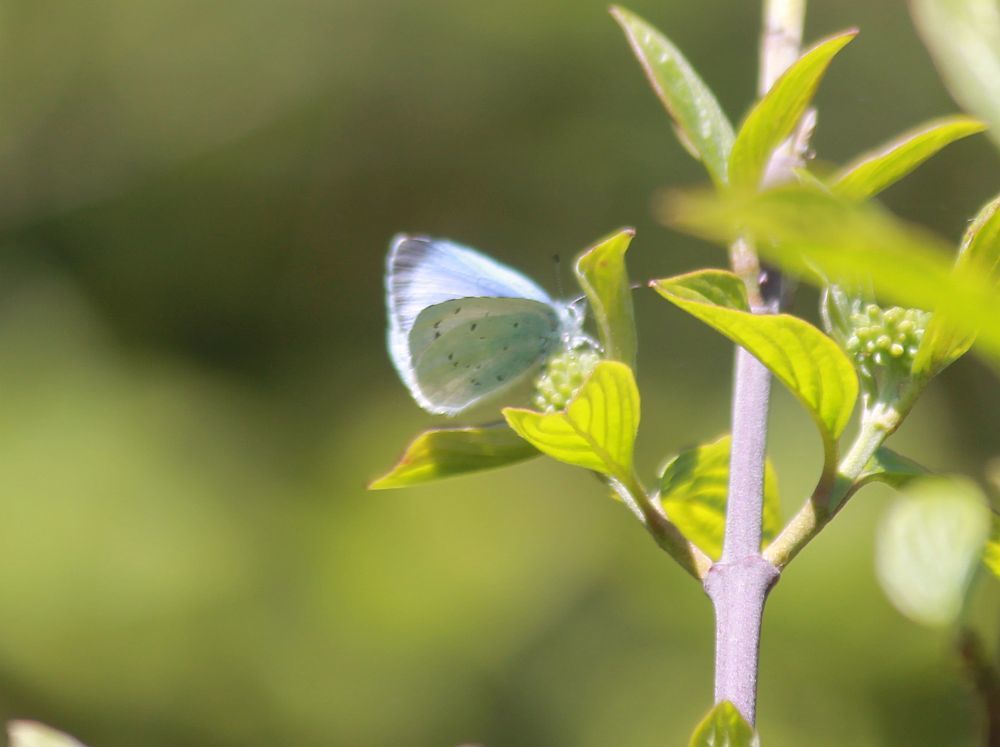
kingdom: Animalia
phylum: Arthropoda
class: Insecta
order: Lepidoptera
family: Lycaenidae
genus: Celastrina
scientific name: Celastrina argiolus
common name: Holly blue
